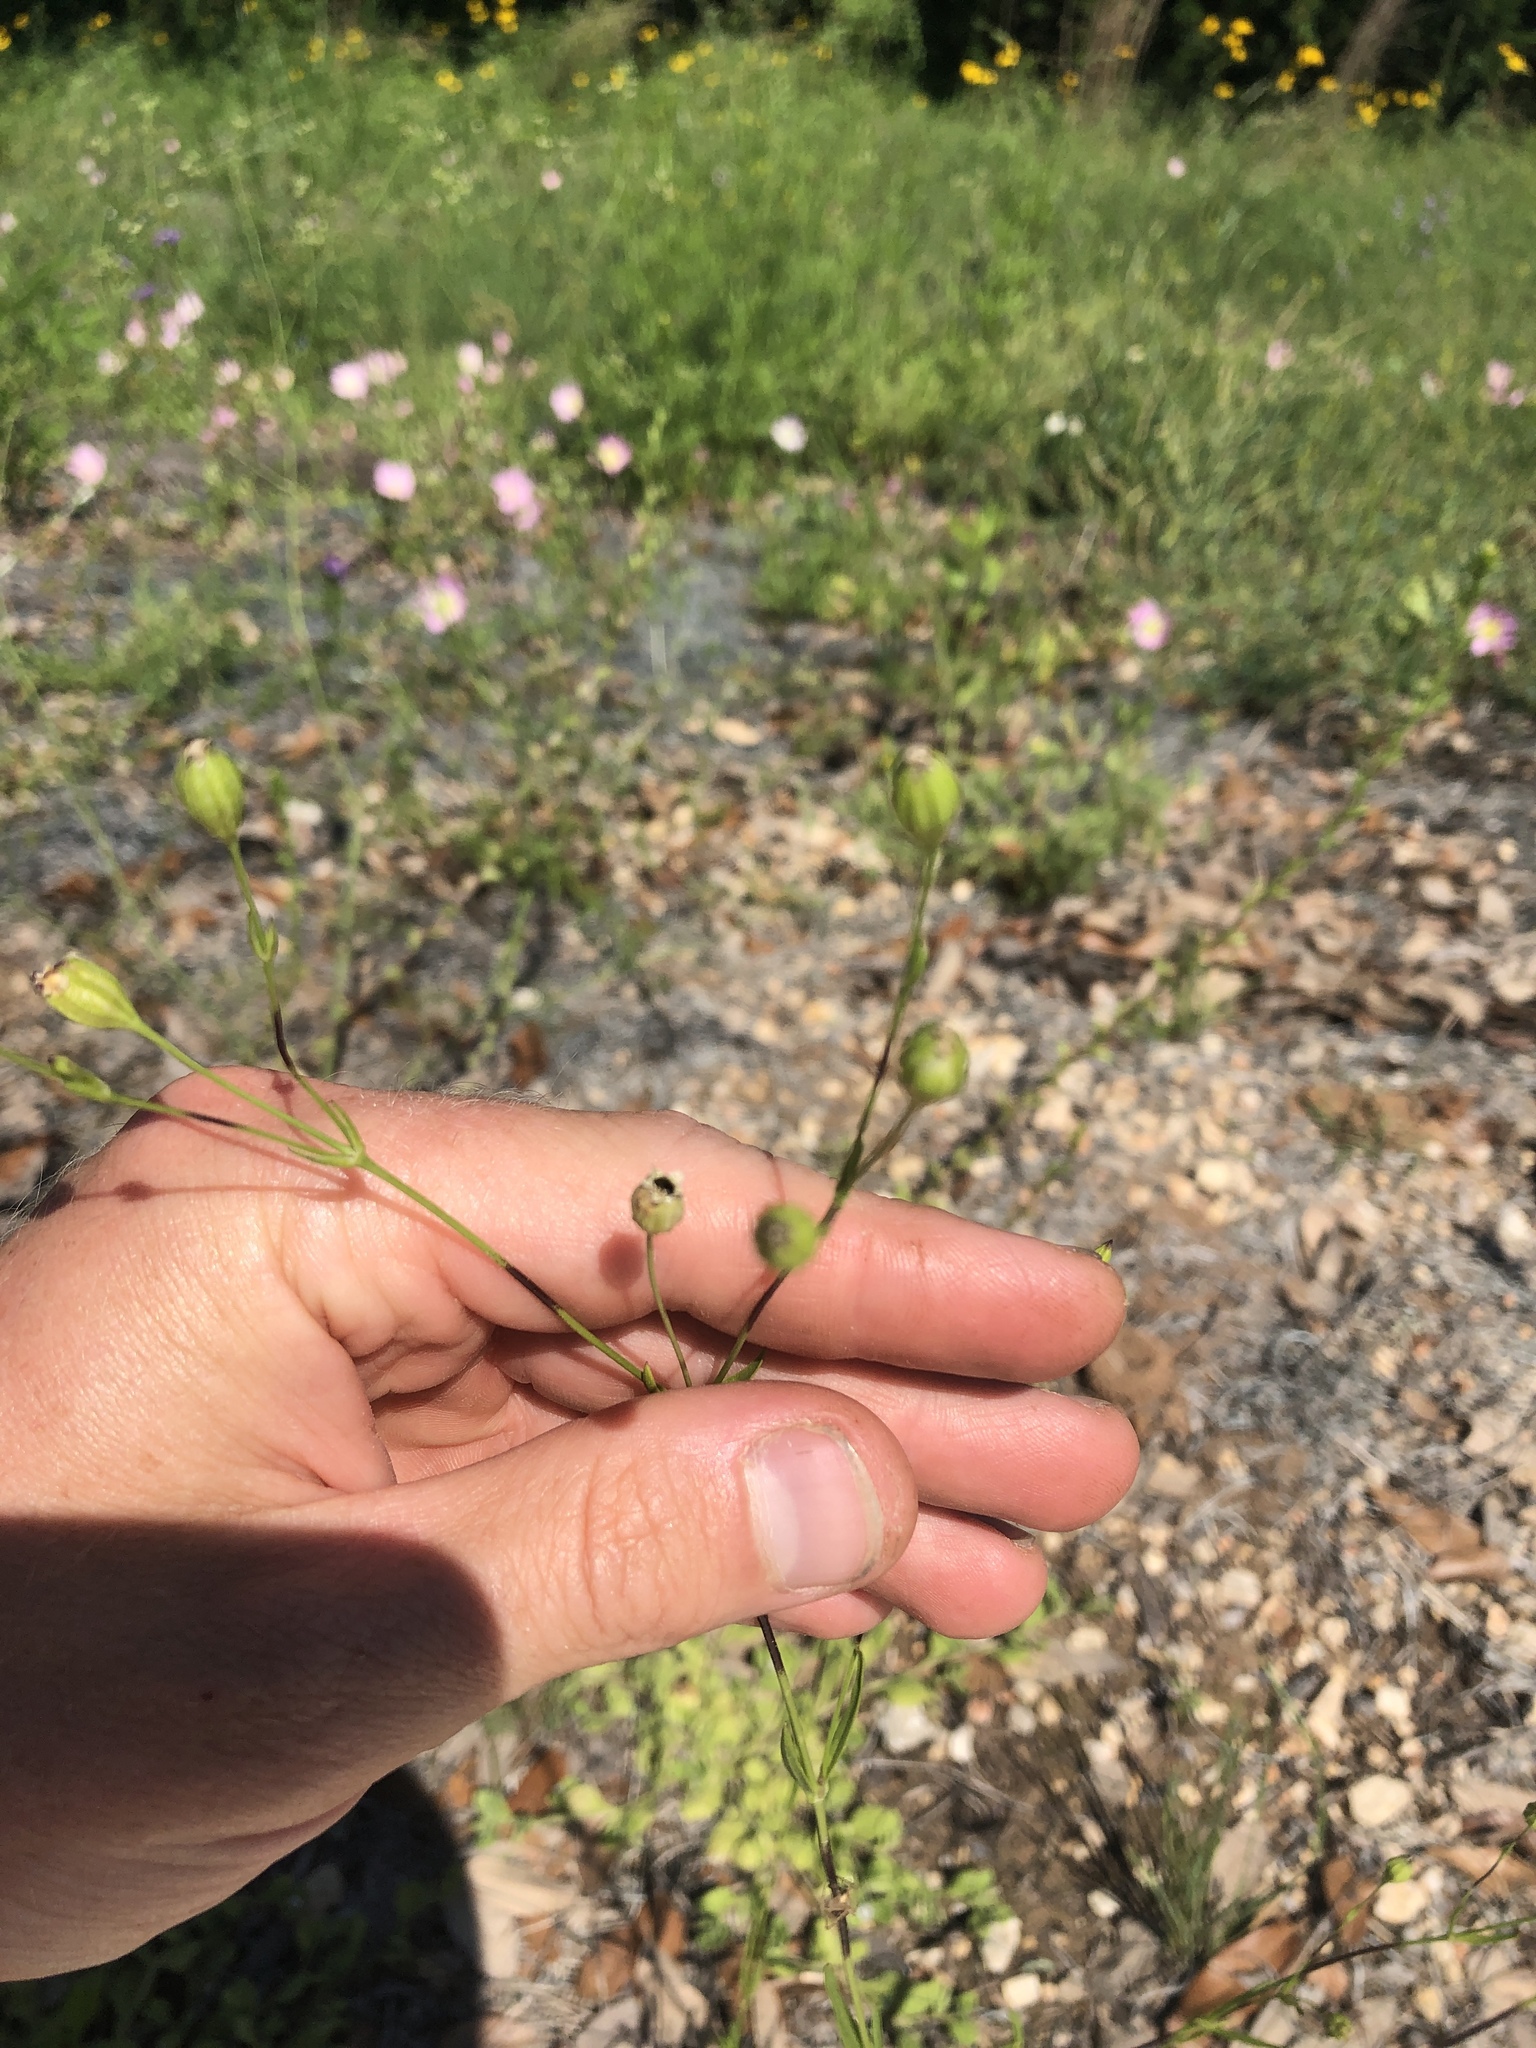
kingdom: Plantae
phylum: Tracheophyta
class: Magnoliopsida
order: Caryophyllales
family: Caryophyllaceae
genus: Silene
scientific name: Silene antirrhina
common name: Sleepy catchfly
